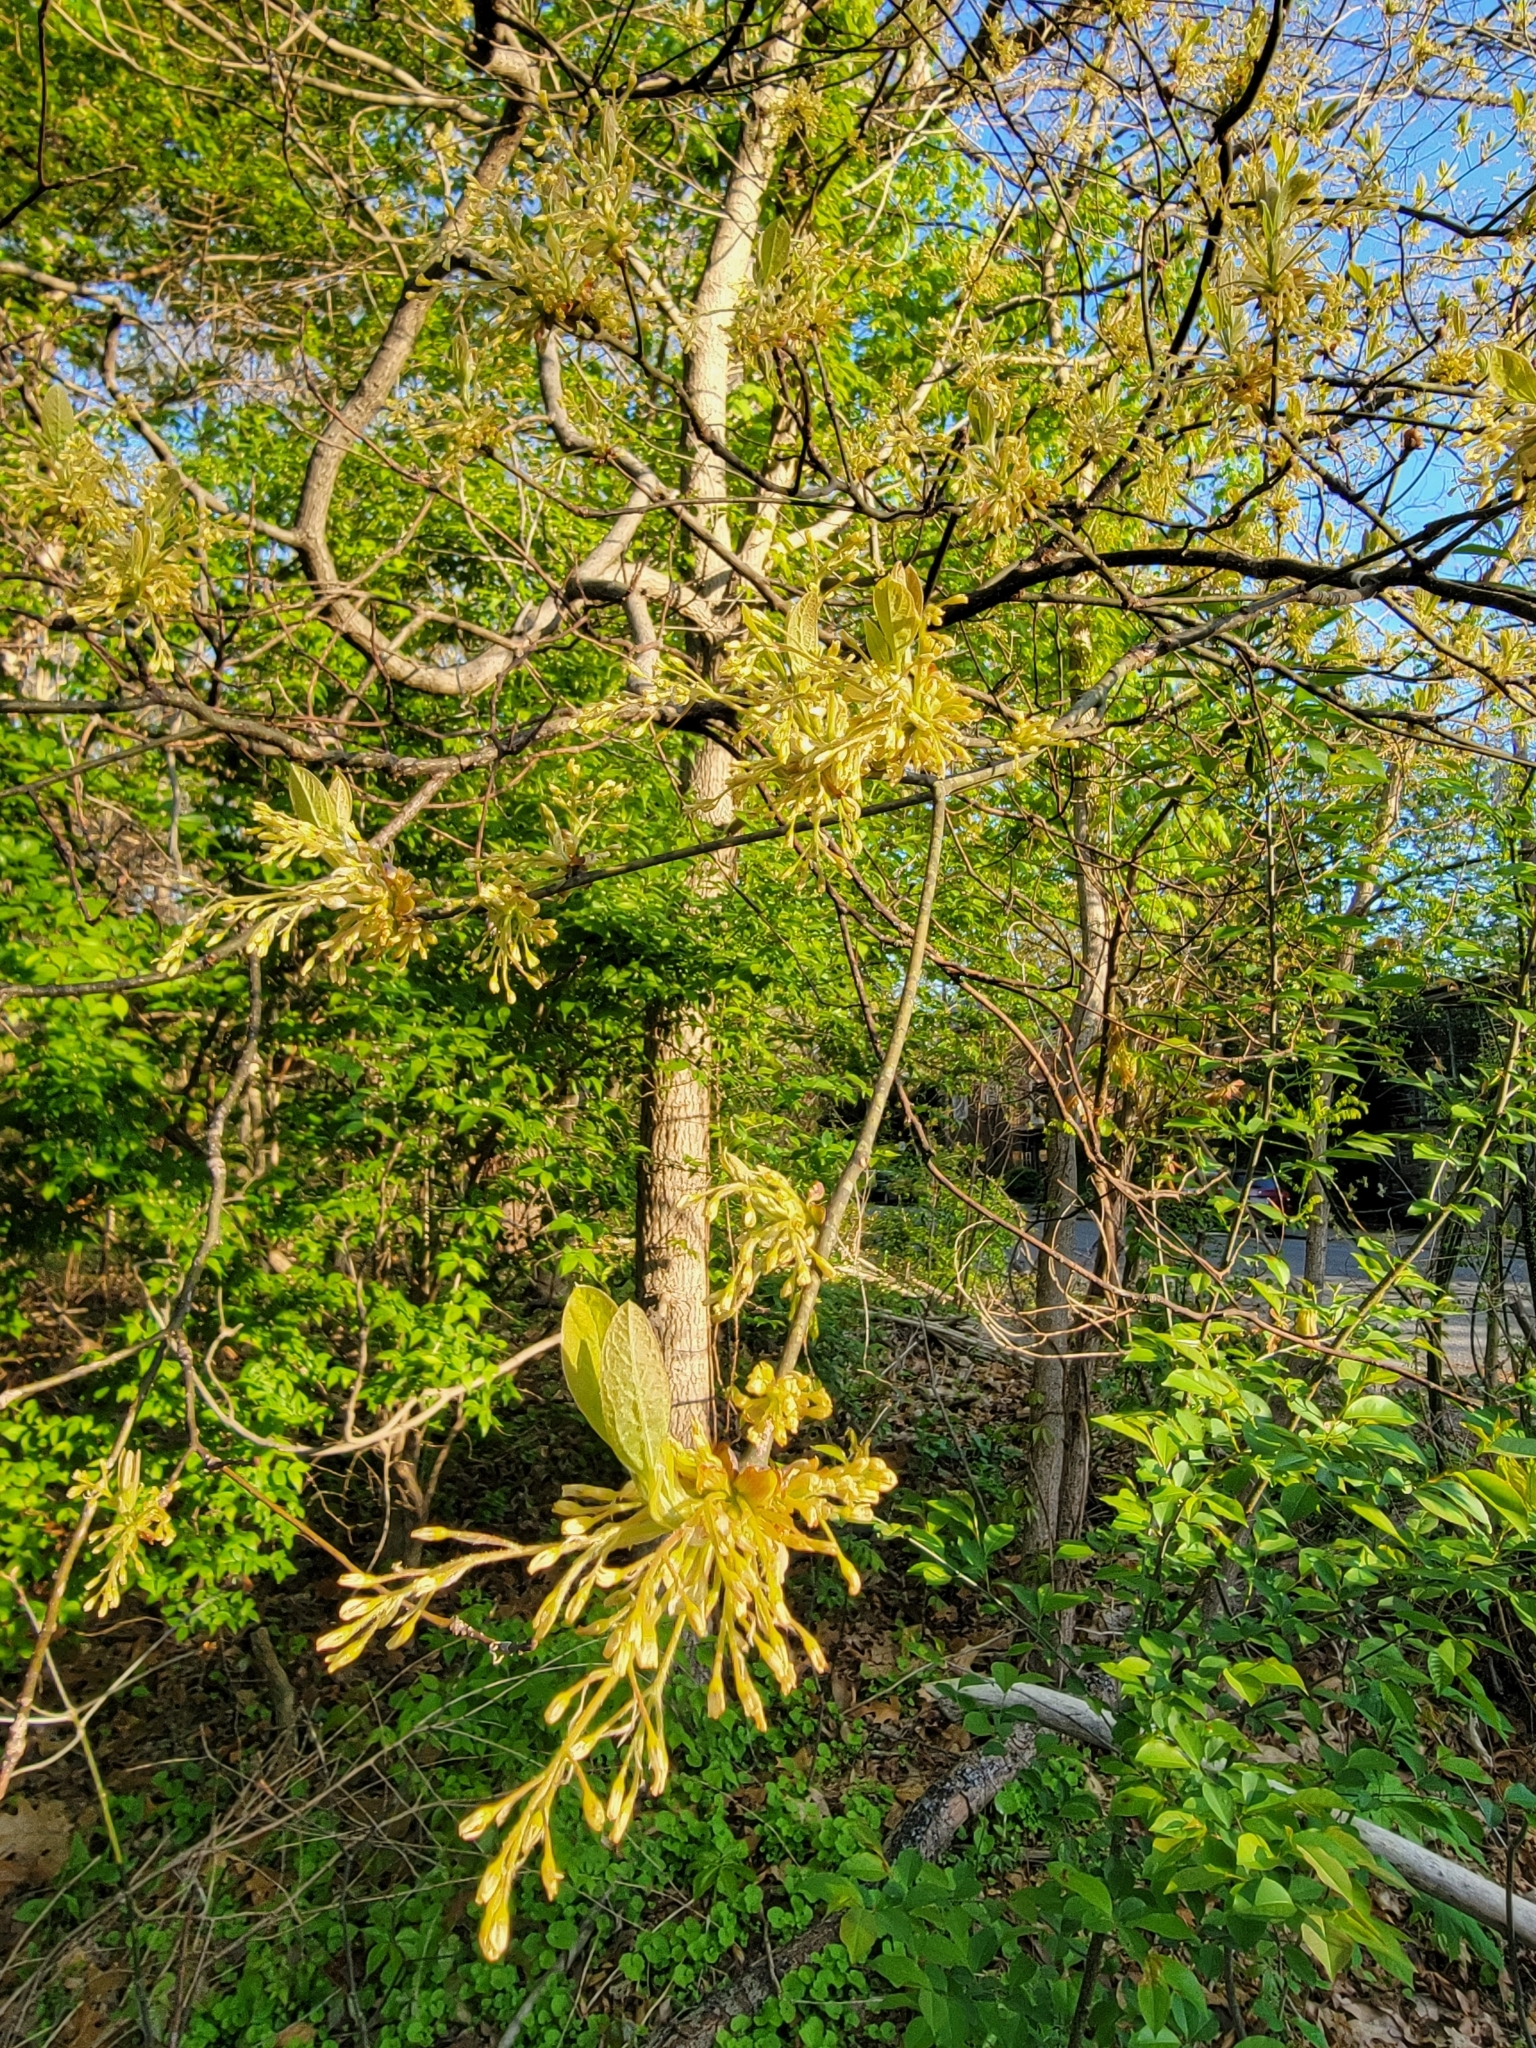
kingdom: Plantae
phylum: Tracheophyta
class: Magnoliopsida
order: Laurales
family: Lauraceae
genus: Sassafras
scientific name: Sassafras albidum
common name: Sassafras
